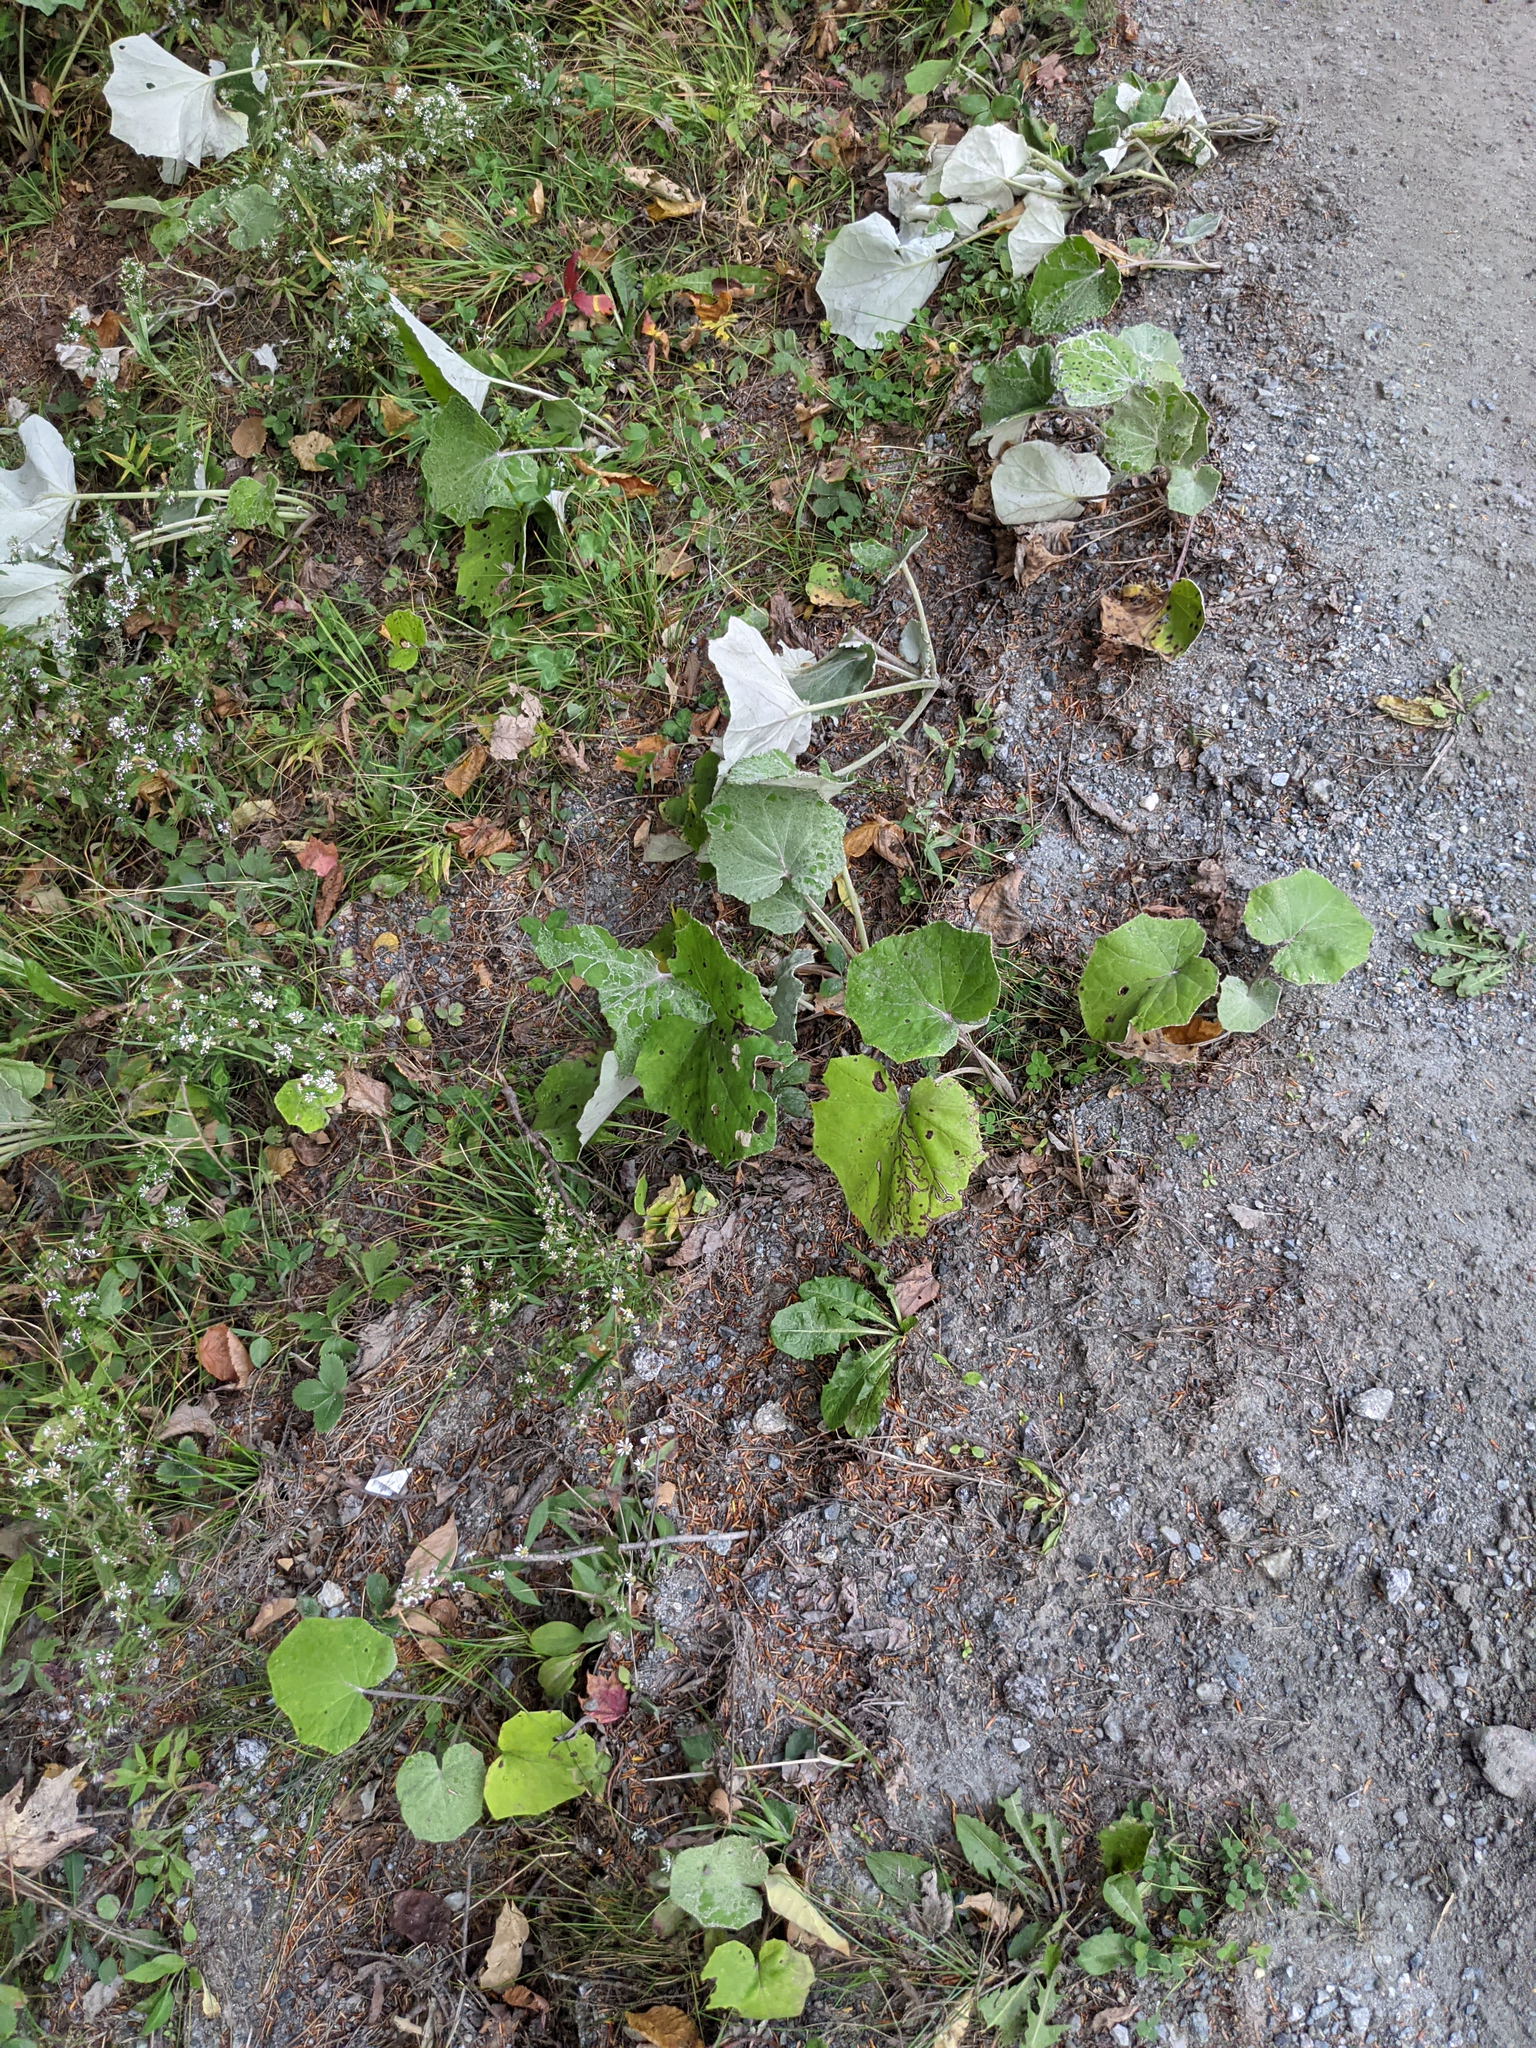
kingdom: Plantae
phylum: Tracheophyta
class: Magnoliopsida
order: Asterales
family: Asteraceae
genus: Tussilago
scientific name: Tussilago farfara
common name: Coltsfoot
